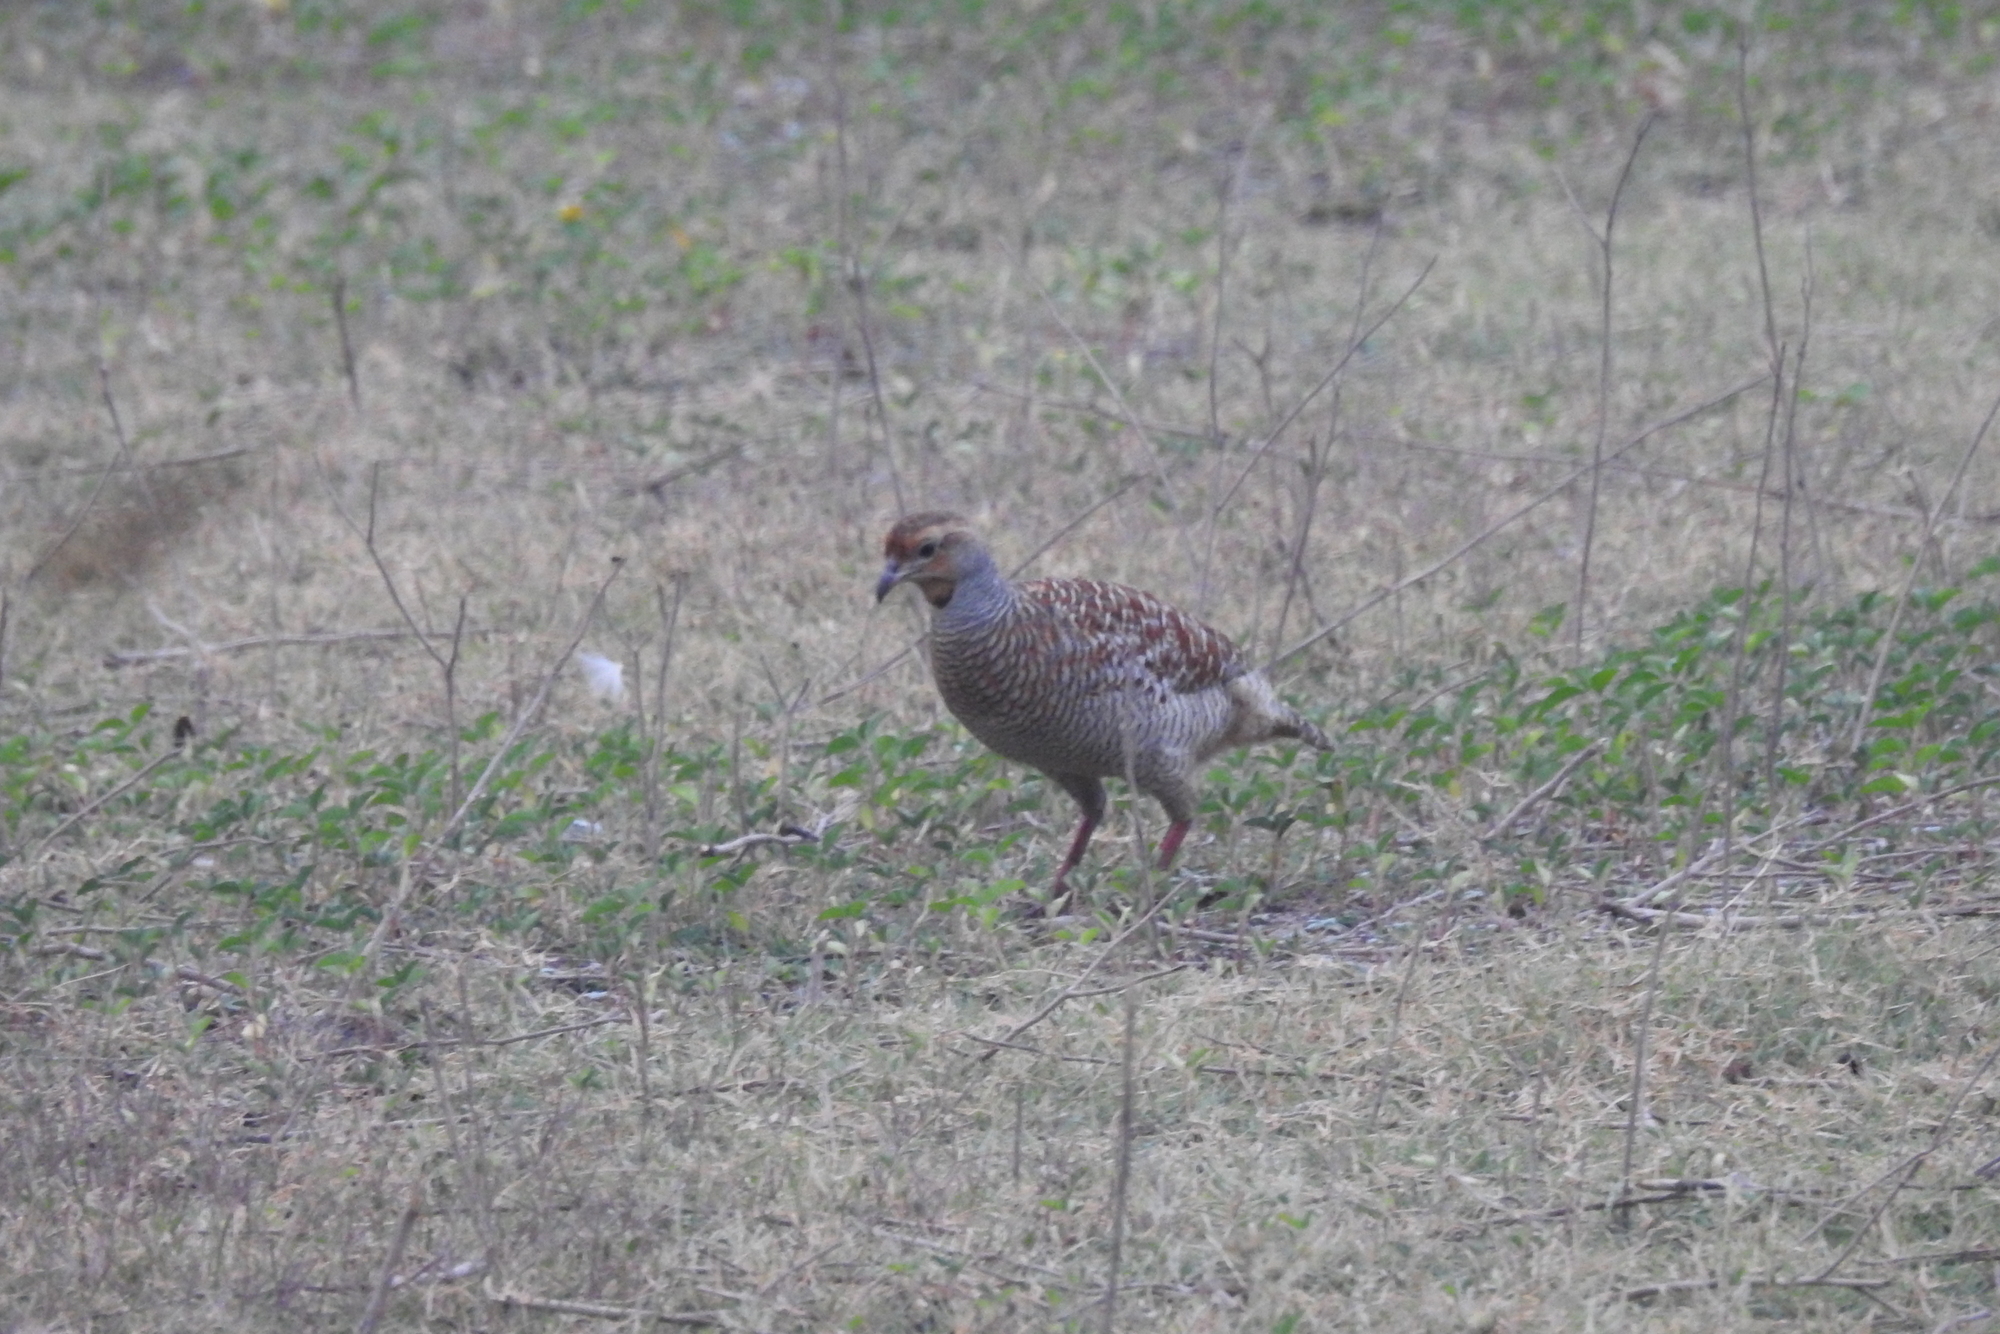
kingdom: Animalia
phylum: Chordata
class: Aves
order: Galliformes
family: Phasianidae
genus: Ortygornis
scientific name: Ortygornis pondicerianus
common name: Grey francolin
